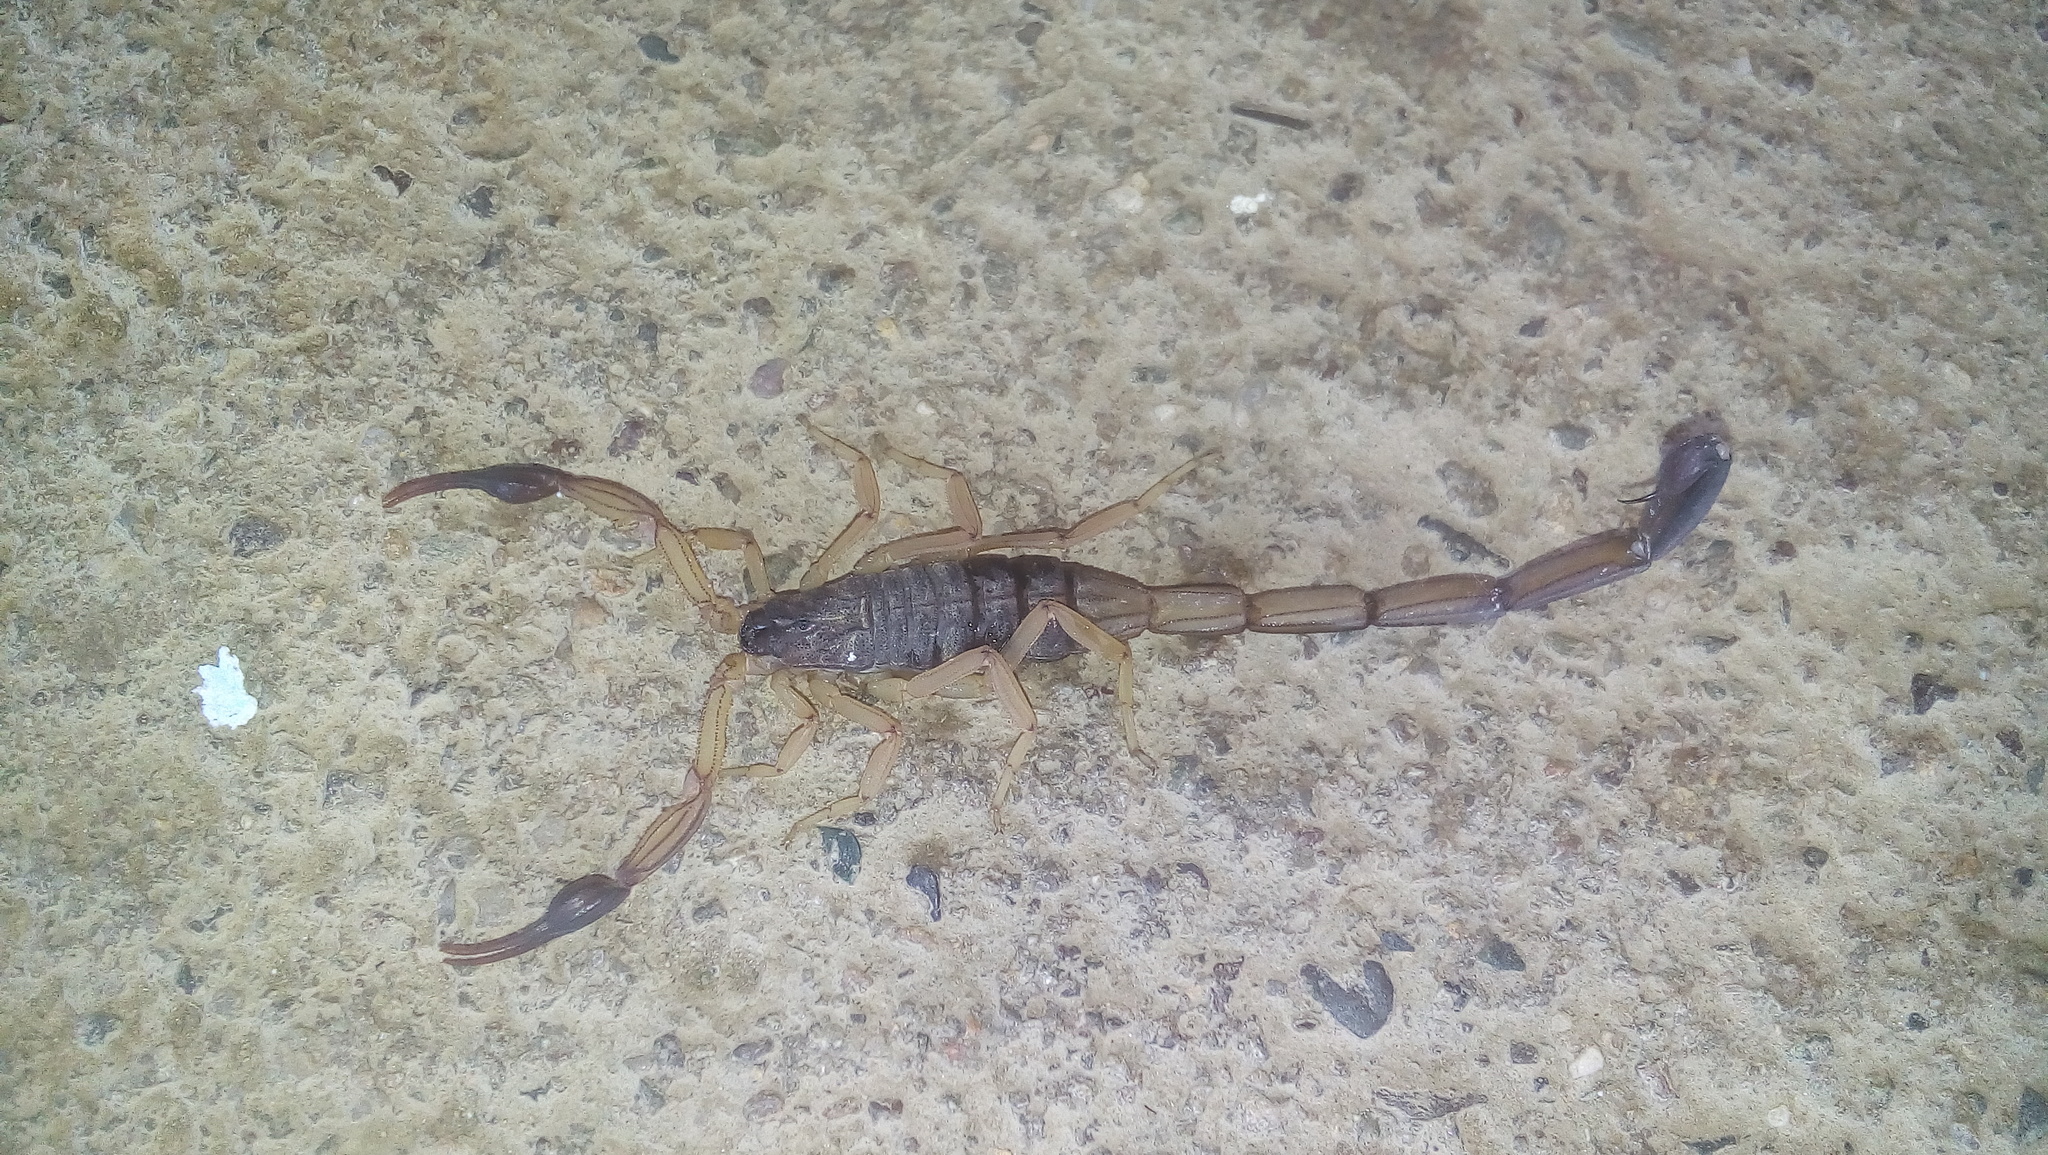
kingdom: Animalia
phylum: Arthropoda
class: Arachnida
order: Scorpiones
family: Buthidae
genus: Centruroides
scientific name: Centruroides nigrimanus
